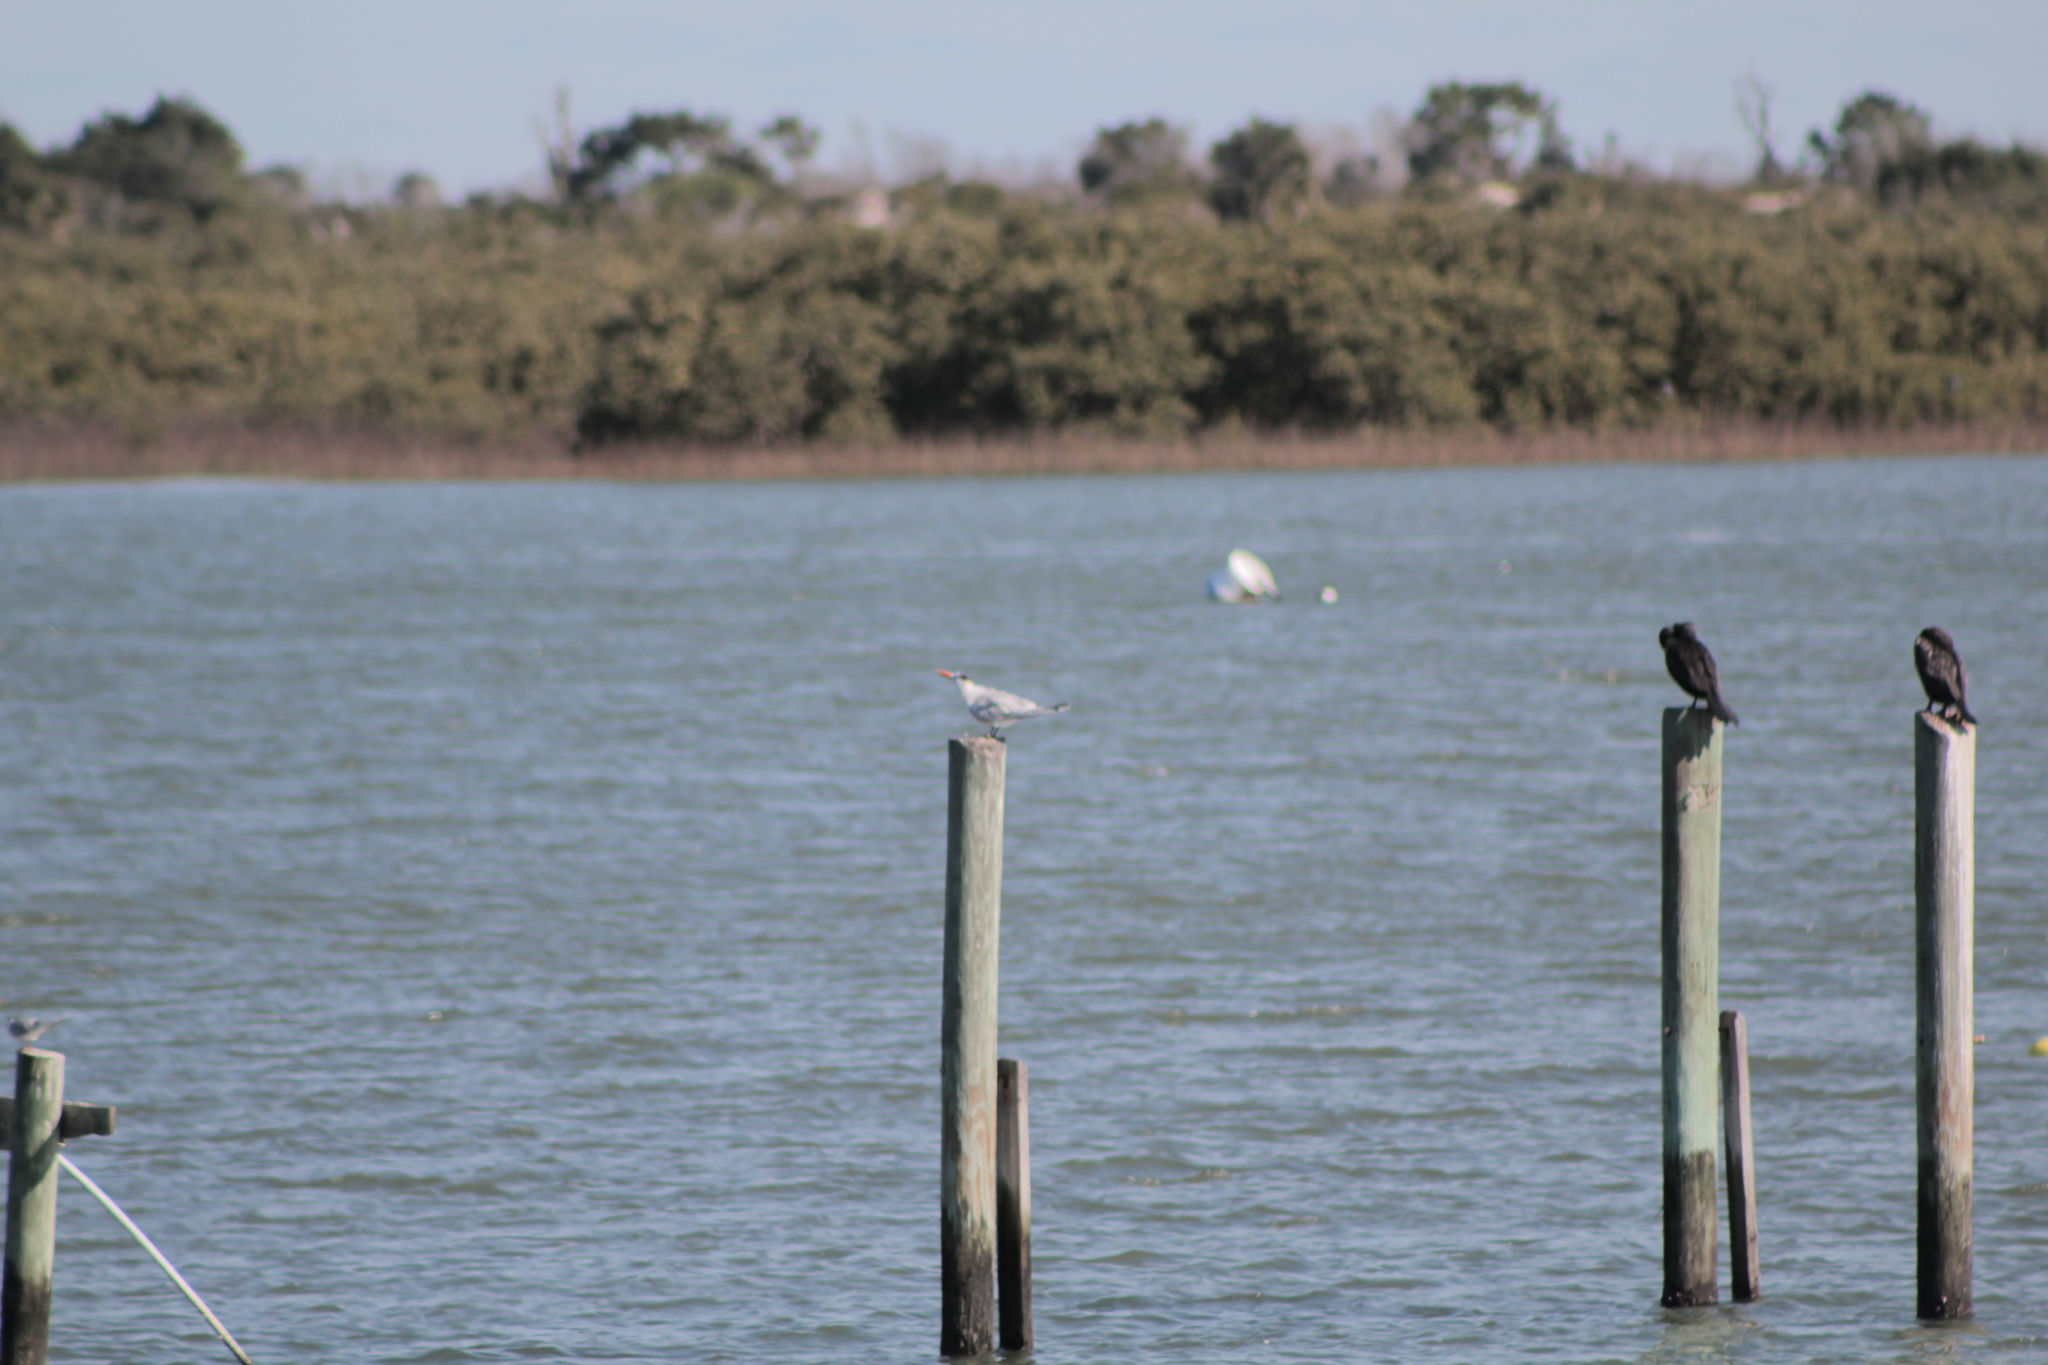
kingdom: Animalia
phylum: Chordata
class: Aves
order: Charadriiformes
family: Laridae
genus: Thalasseus
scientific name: Thalasseus maximus
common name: Royal tern
